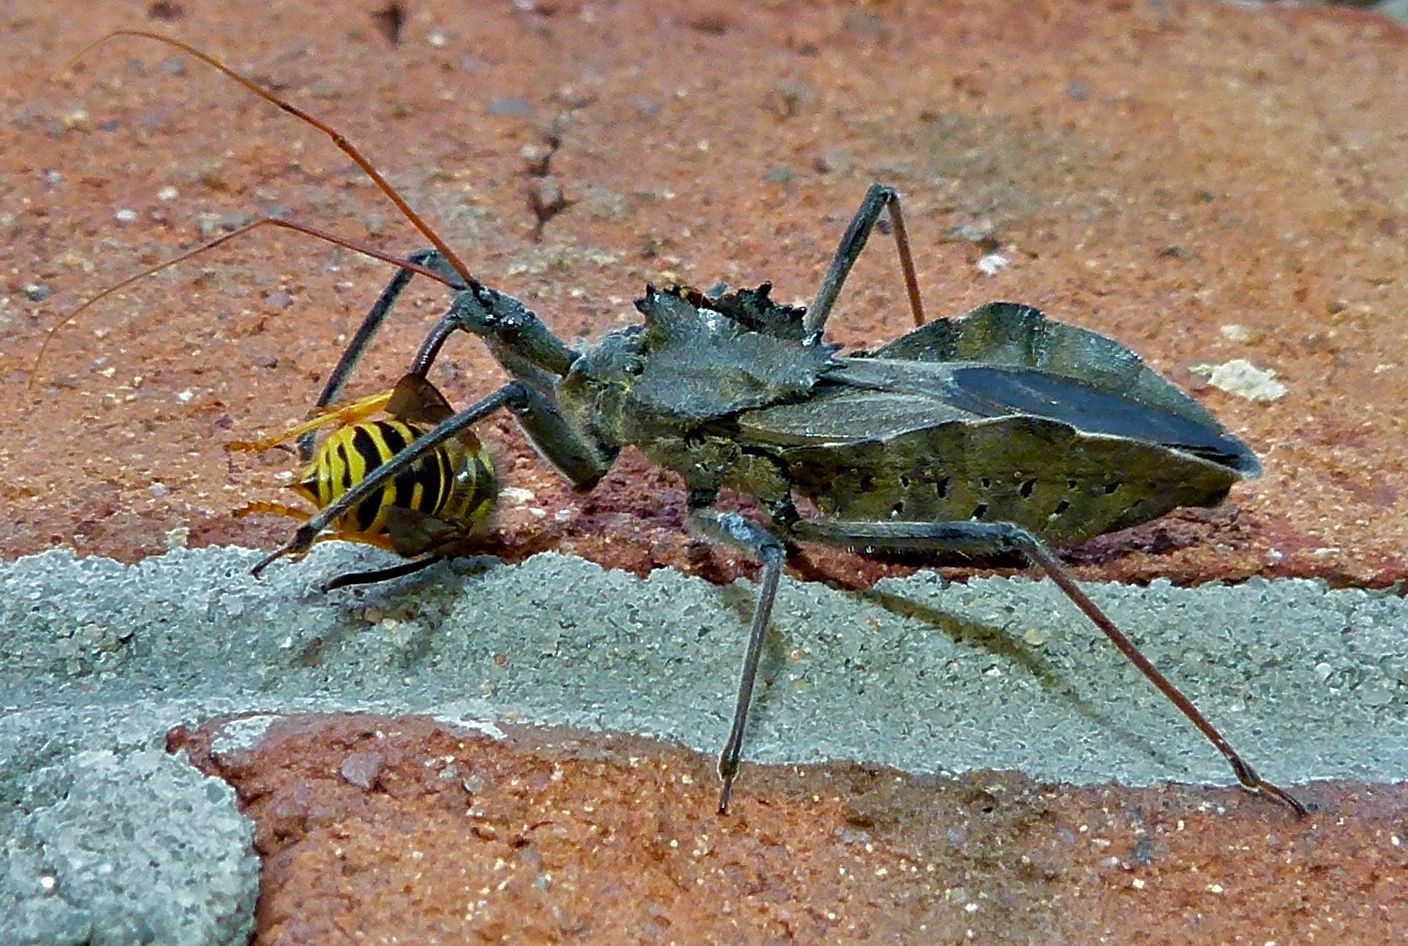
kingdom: Animalia
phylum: Arthropoda
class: Insecta
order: Hemiptera
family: Reduviidae
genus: Arilus
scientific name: Arilus cristatus
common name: North american wheel bug
